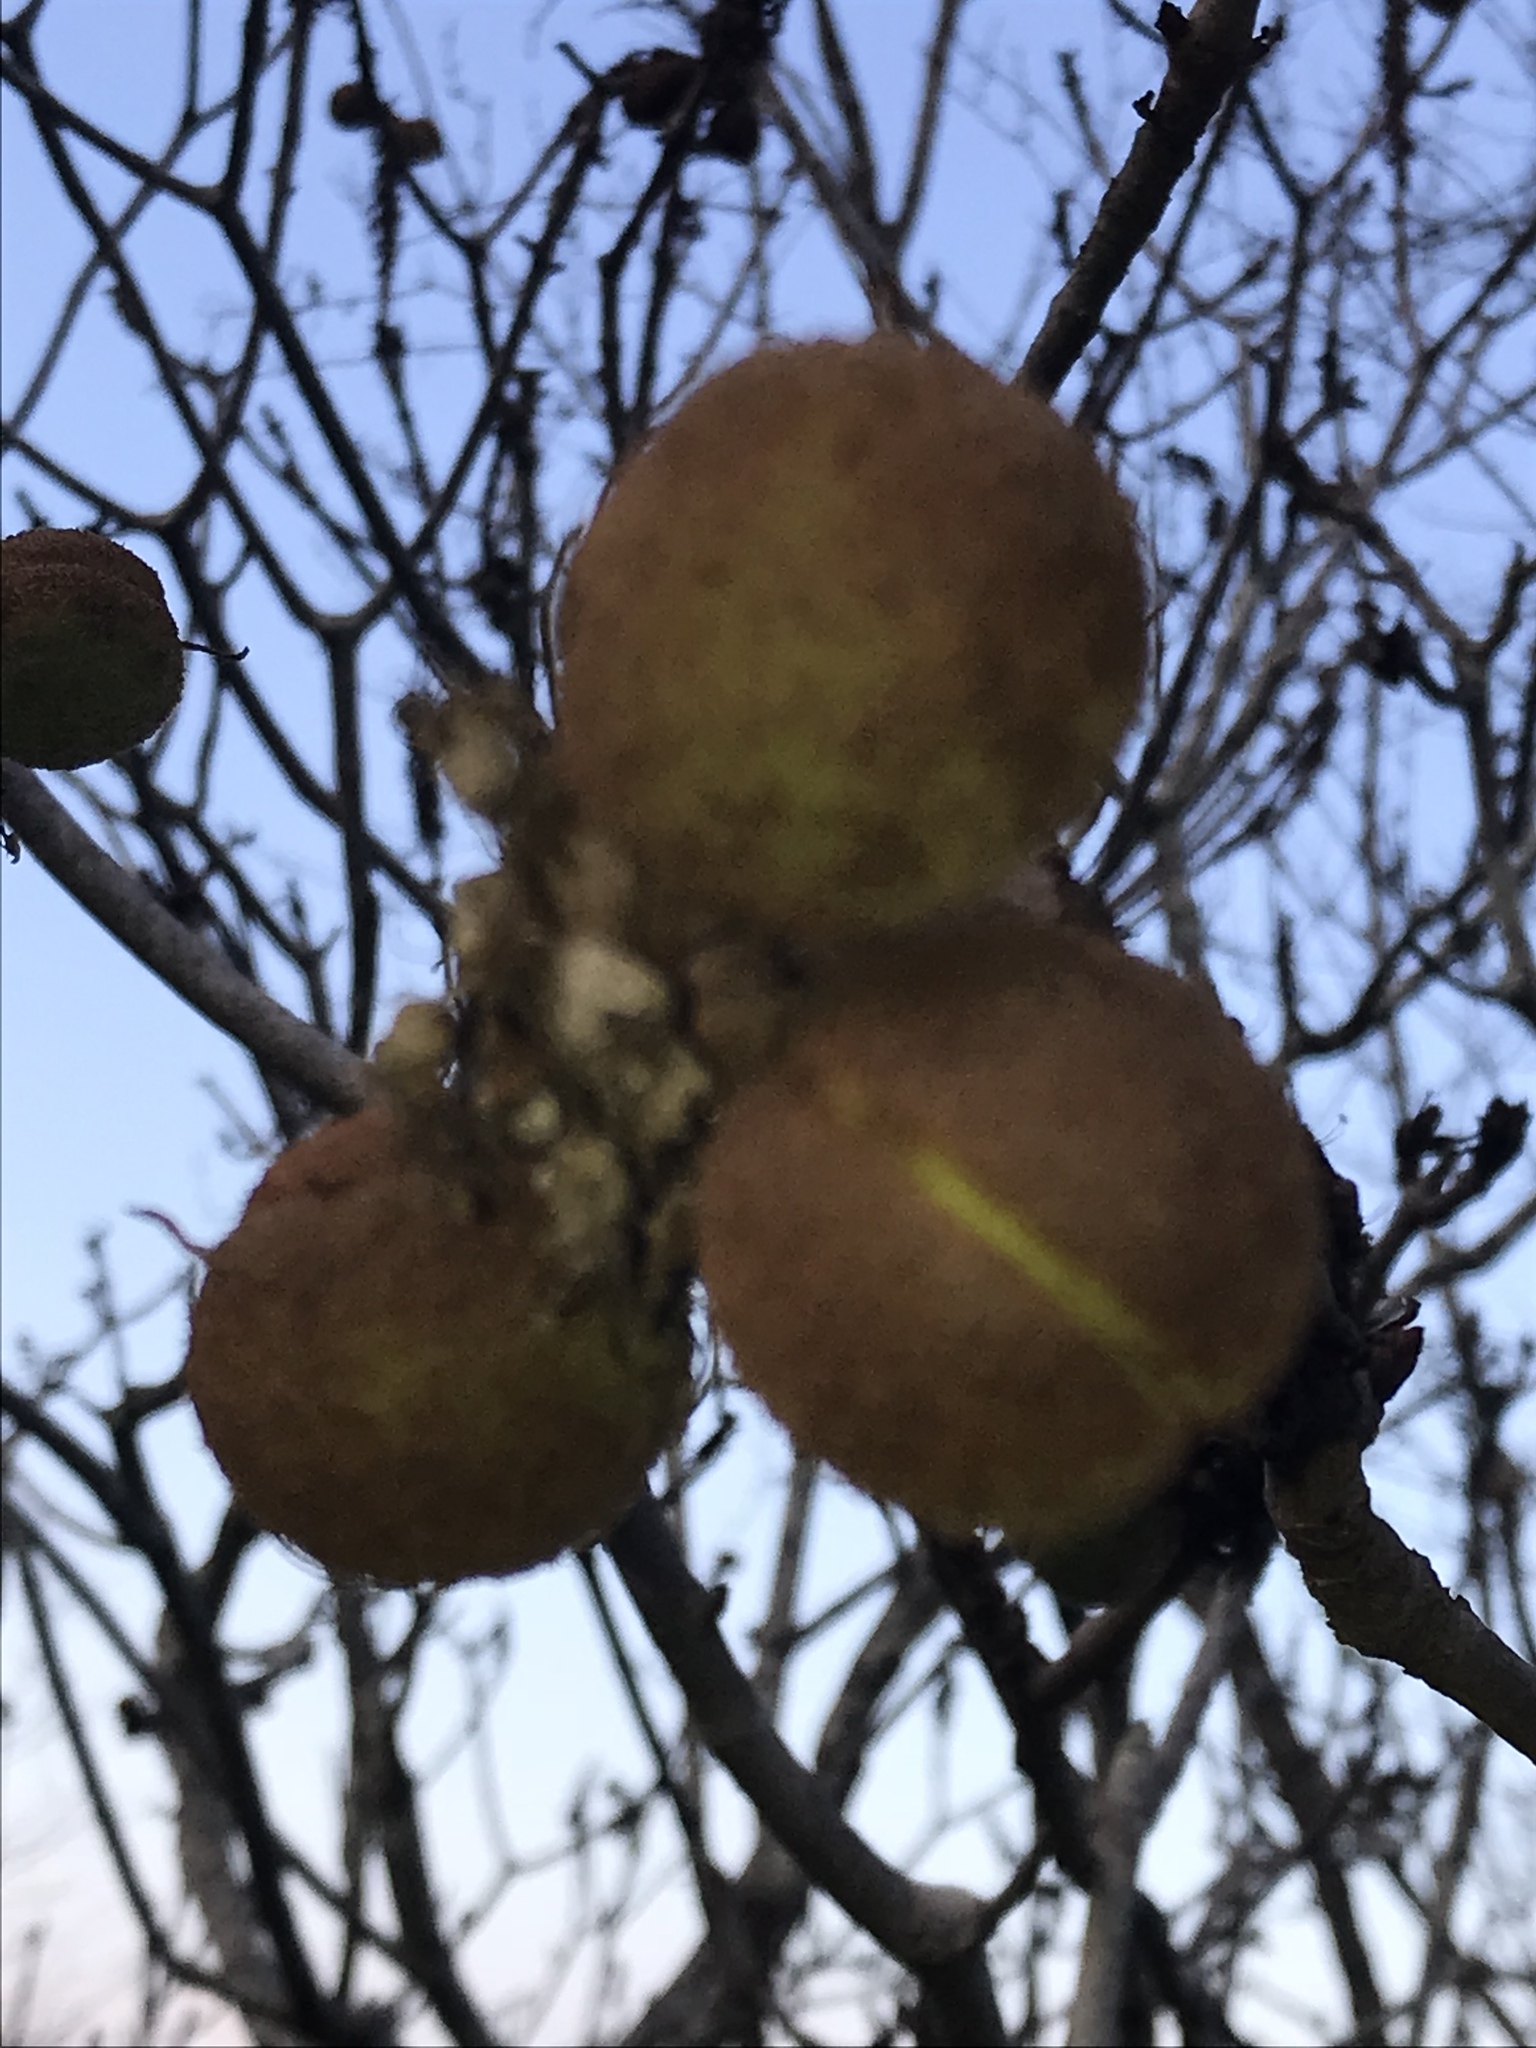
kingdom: Plantae
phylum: Tracheophyta
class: Magnoliopsida
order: Sapindales
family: Sapindaceae
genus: Aesculus
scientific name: Aesculus parryi
